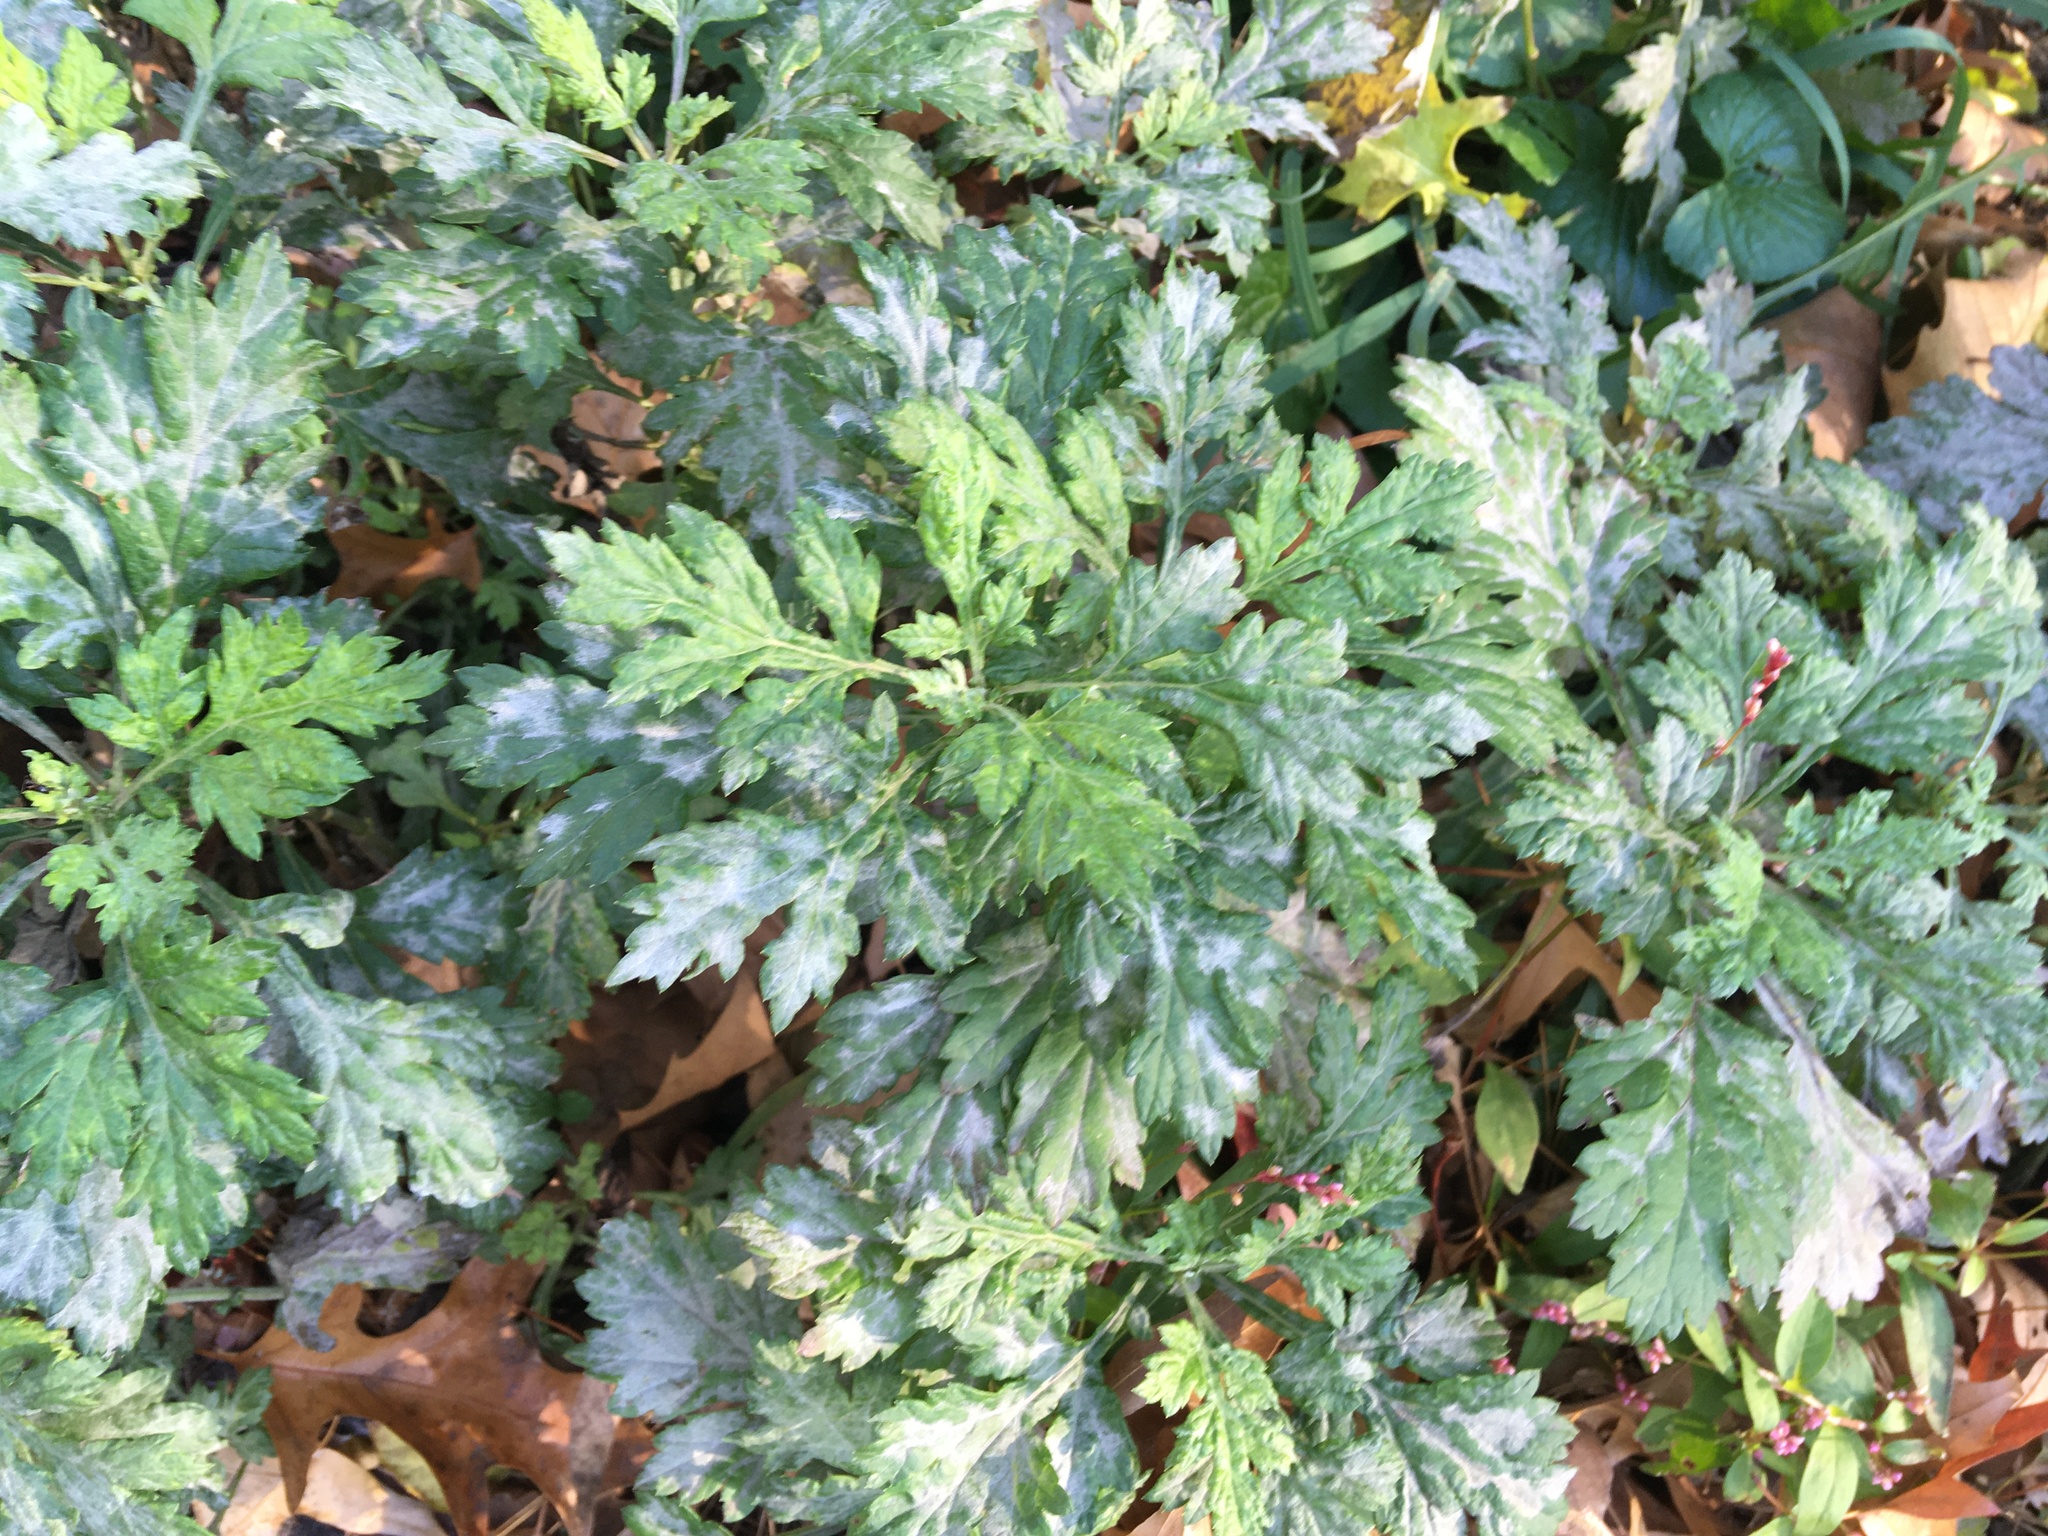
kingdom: Plantae
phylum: Tracheophyta
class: Magnoliopsida
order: Asterales
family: Asteraceae
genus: Artemisia
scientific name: Artemisia vulgaris
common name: Mugwort
